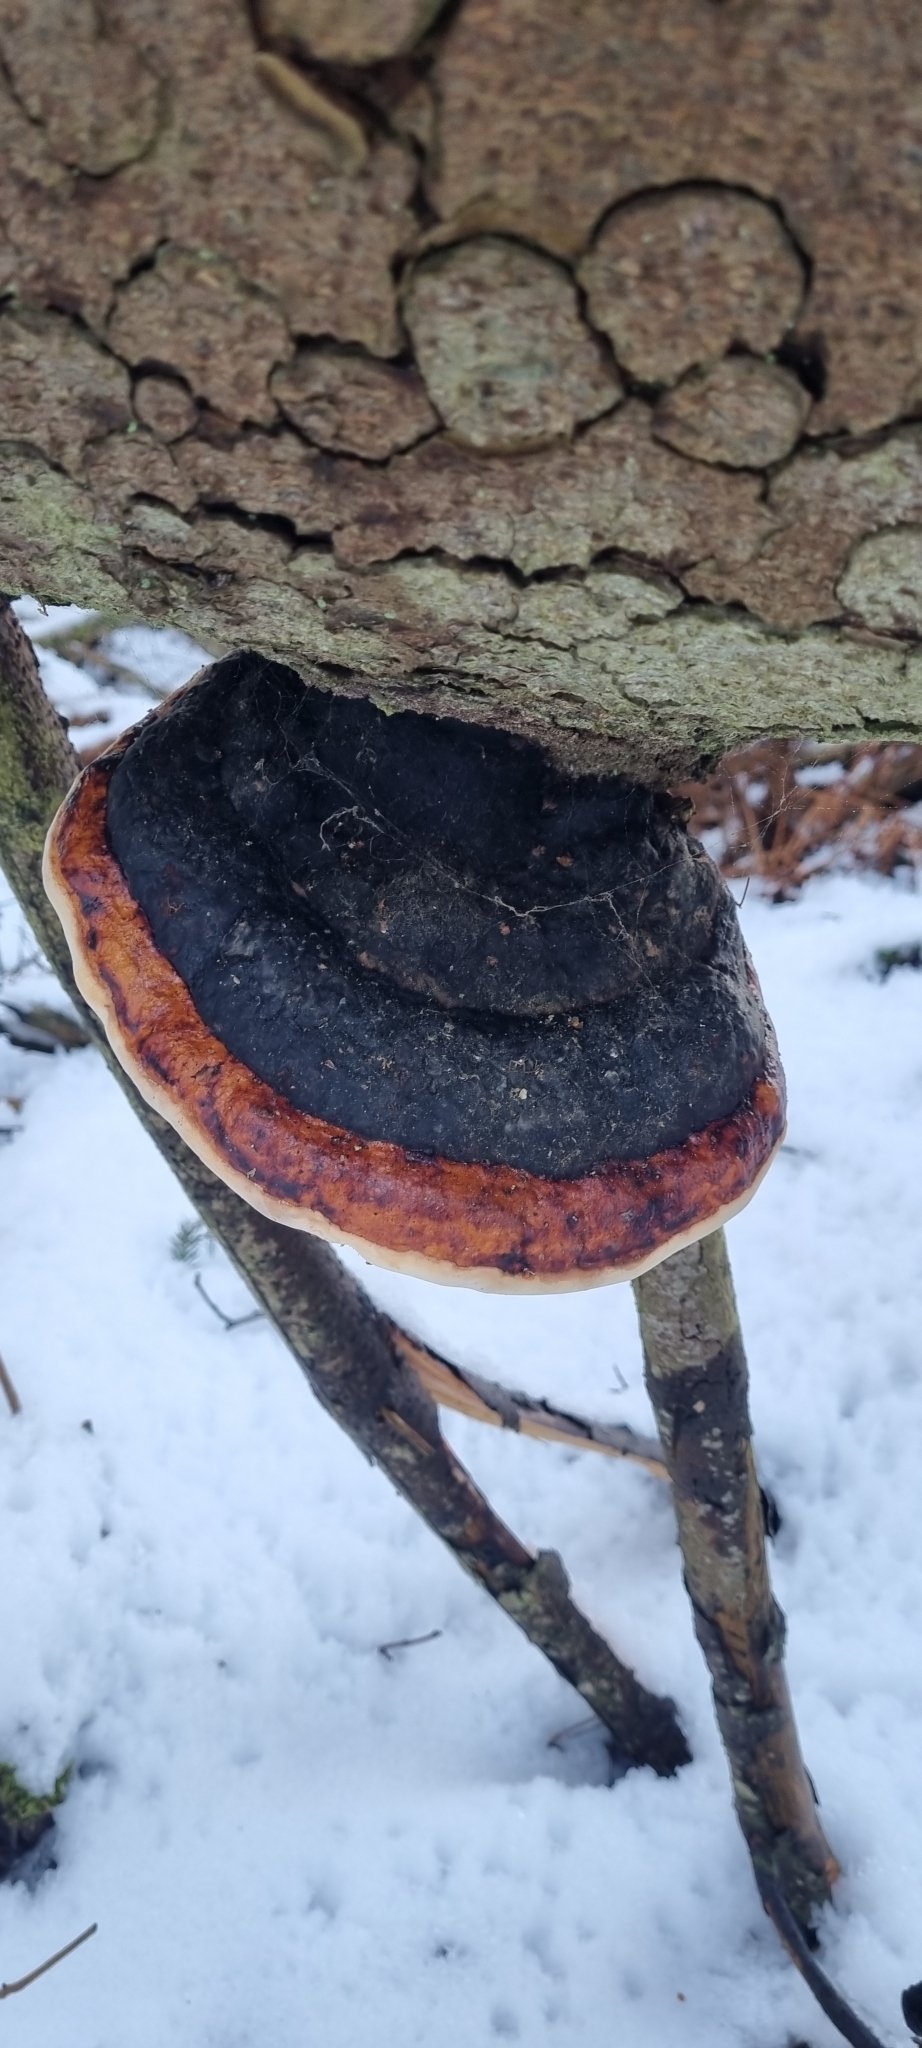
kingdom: Fungi
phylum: Basidiomycota
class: Agaricomycetes
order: Polyporales
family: Fomitopsidaceae
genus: Fomitopsis
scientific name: Fomitopsis pinicola
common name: Red-belted bracket
